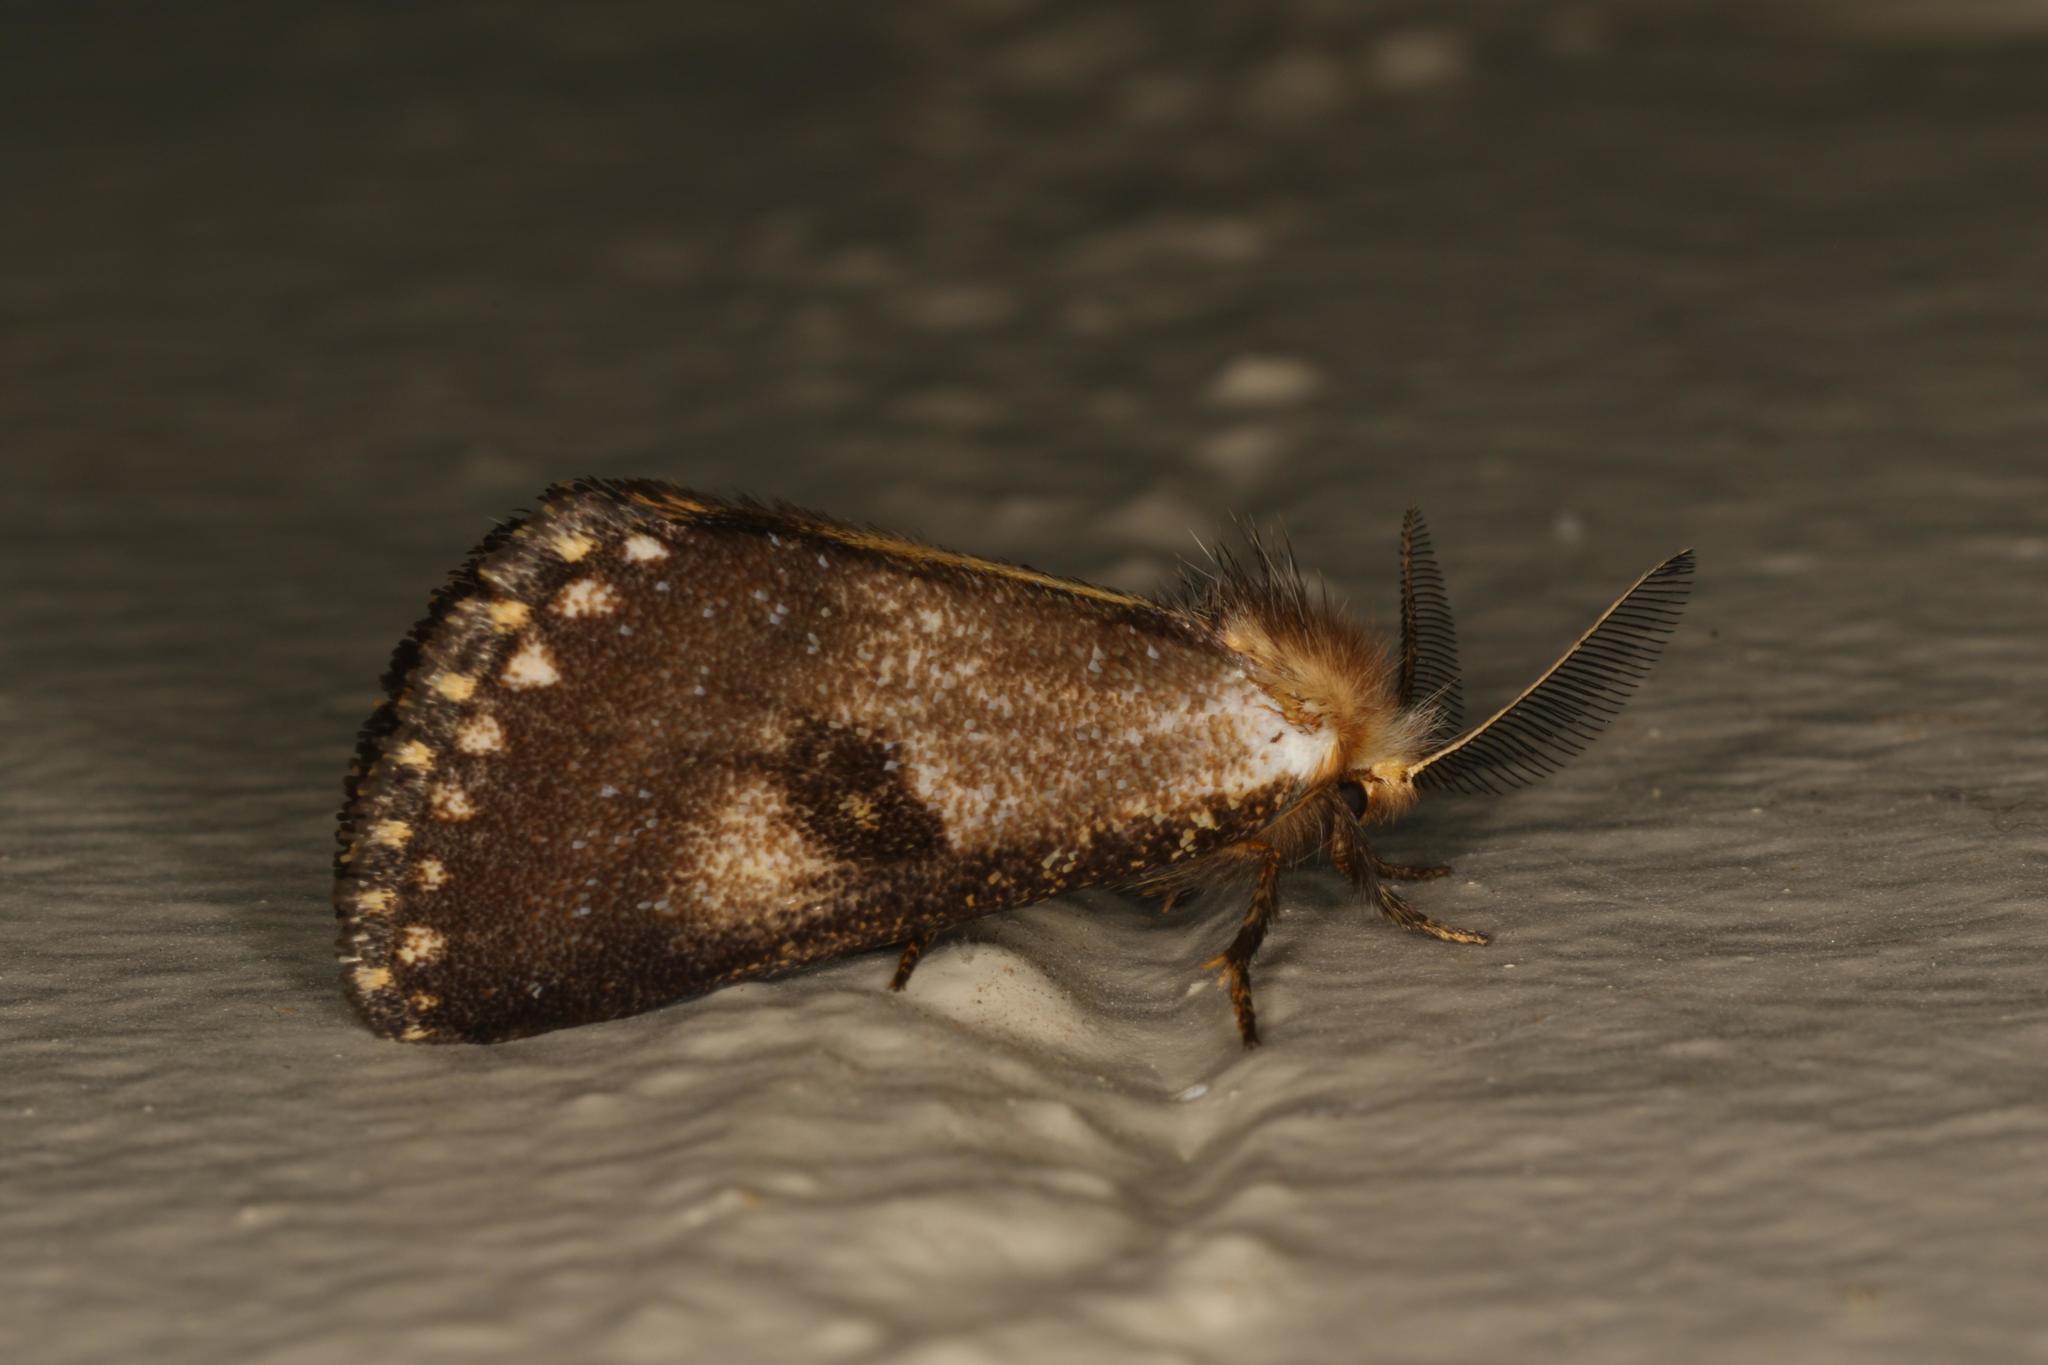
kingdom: Animalia
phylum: Arthropoda
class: Insecta
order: Lepidoptera
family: Notodontidae
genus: Epicoma
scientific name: Epicoma contristis
